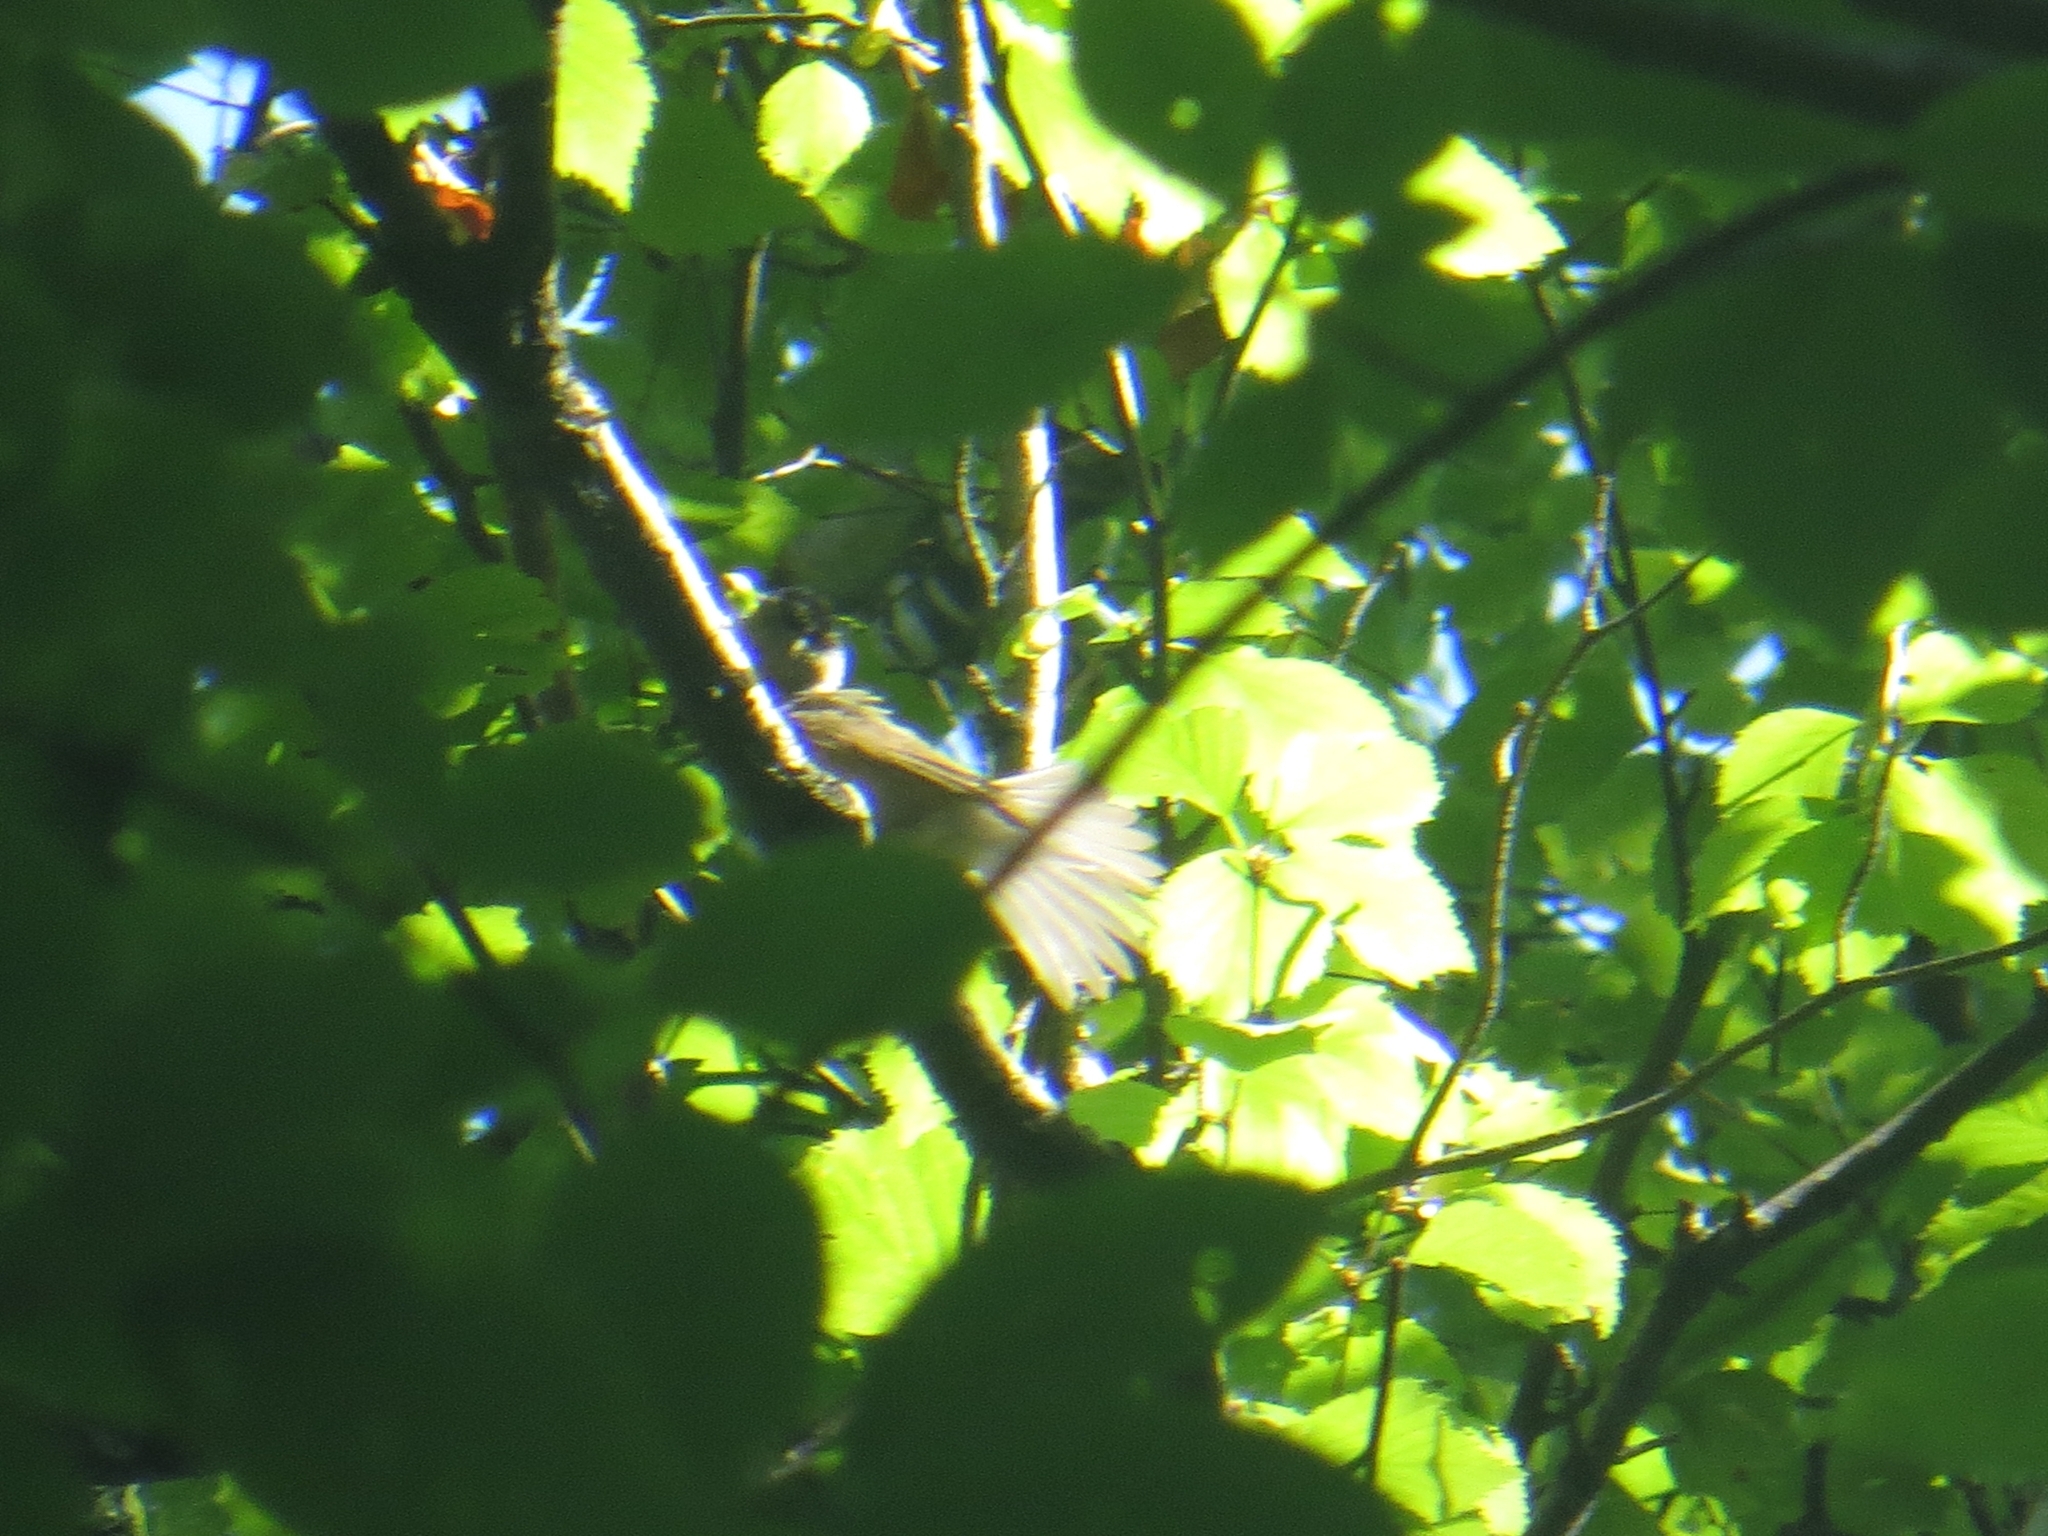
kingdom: Animalia
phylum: Chordata
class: Aves
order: Passeriformes
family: Sylviidae
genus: Sylvia
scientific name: Sylvia atricapilla
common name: Eurasian blackcap
